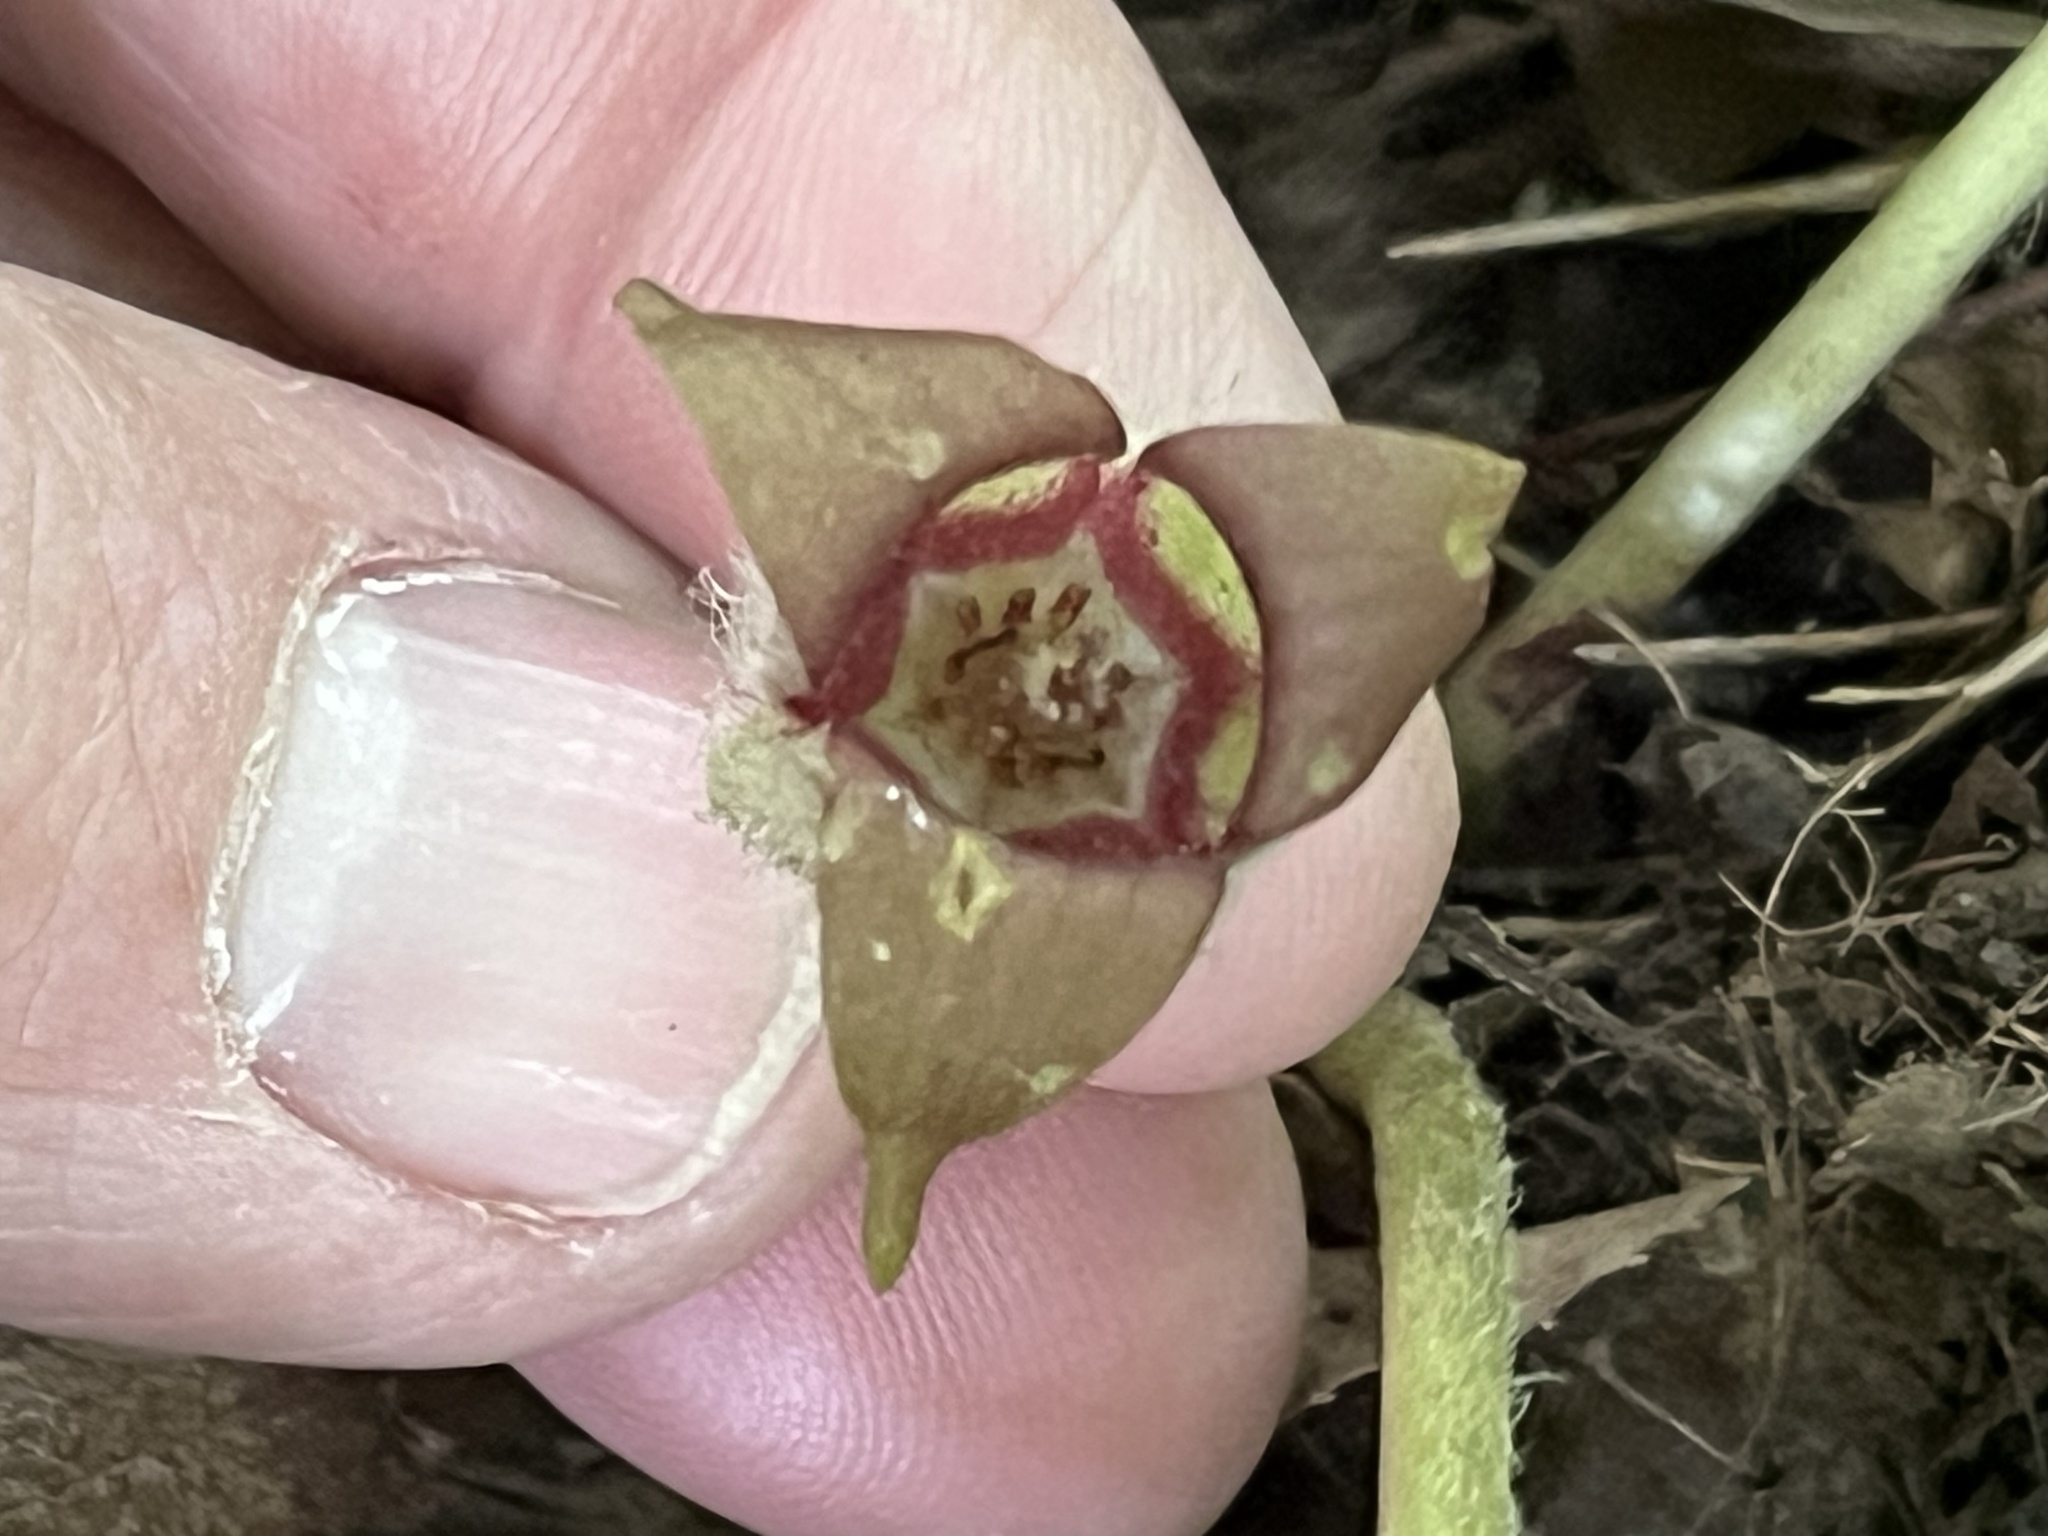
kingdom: Plantae
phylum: Tracheophyta
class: Magnoliopsida
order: Piperales
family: Aristolochiaceae
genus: Asarum
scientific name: Asarum canadense
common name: Wild ginger
